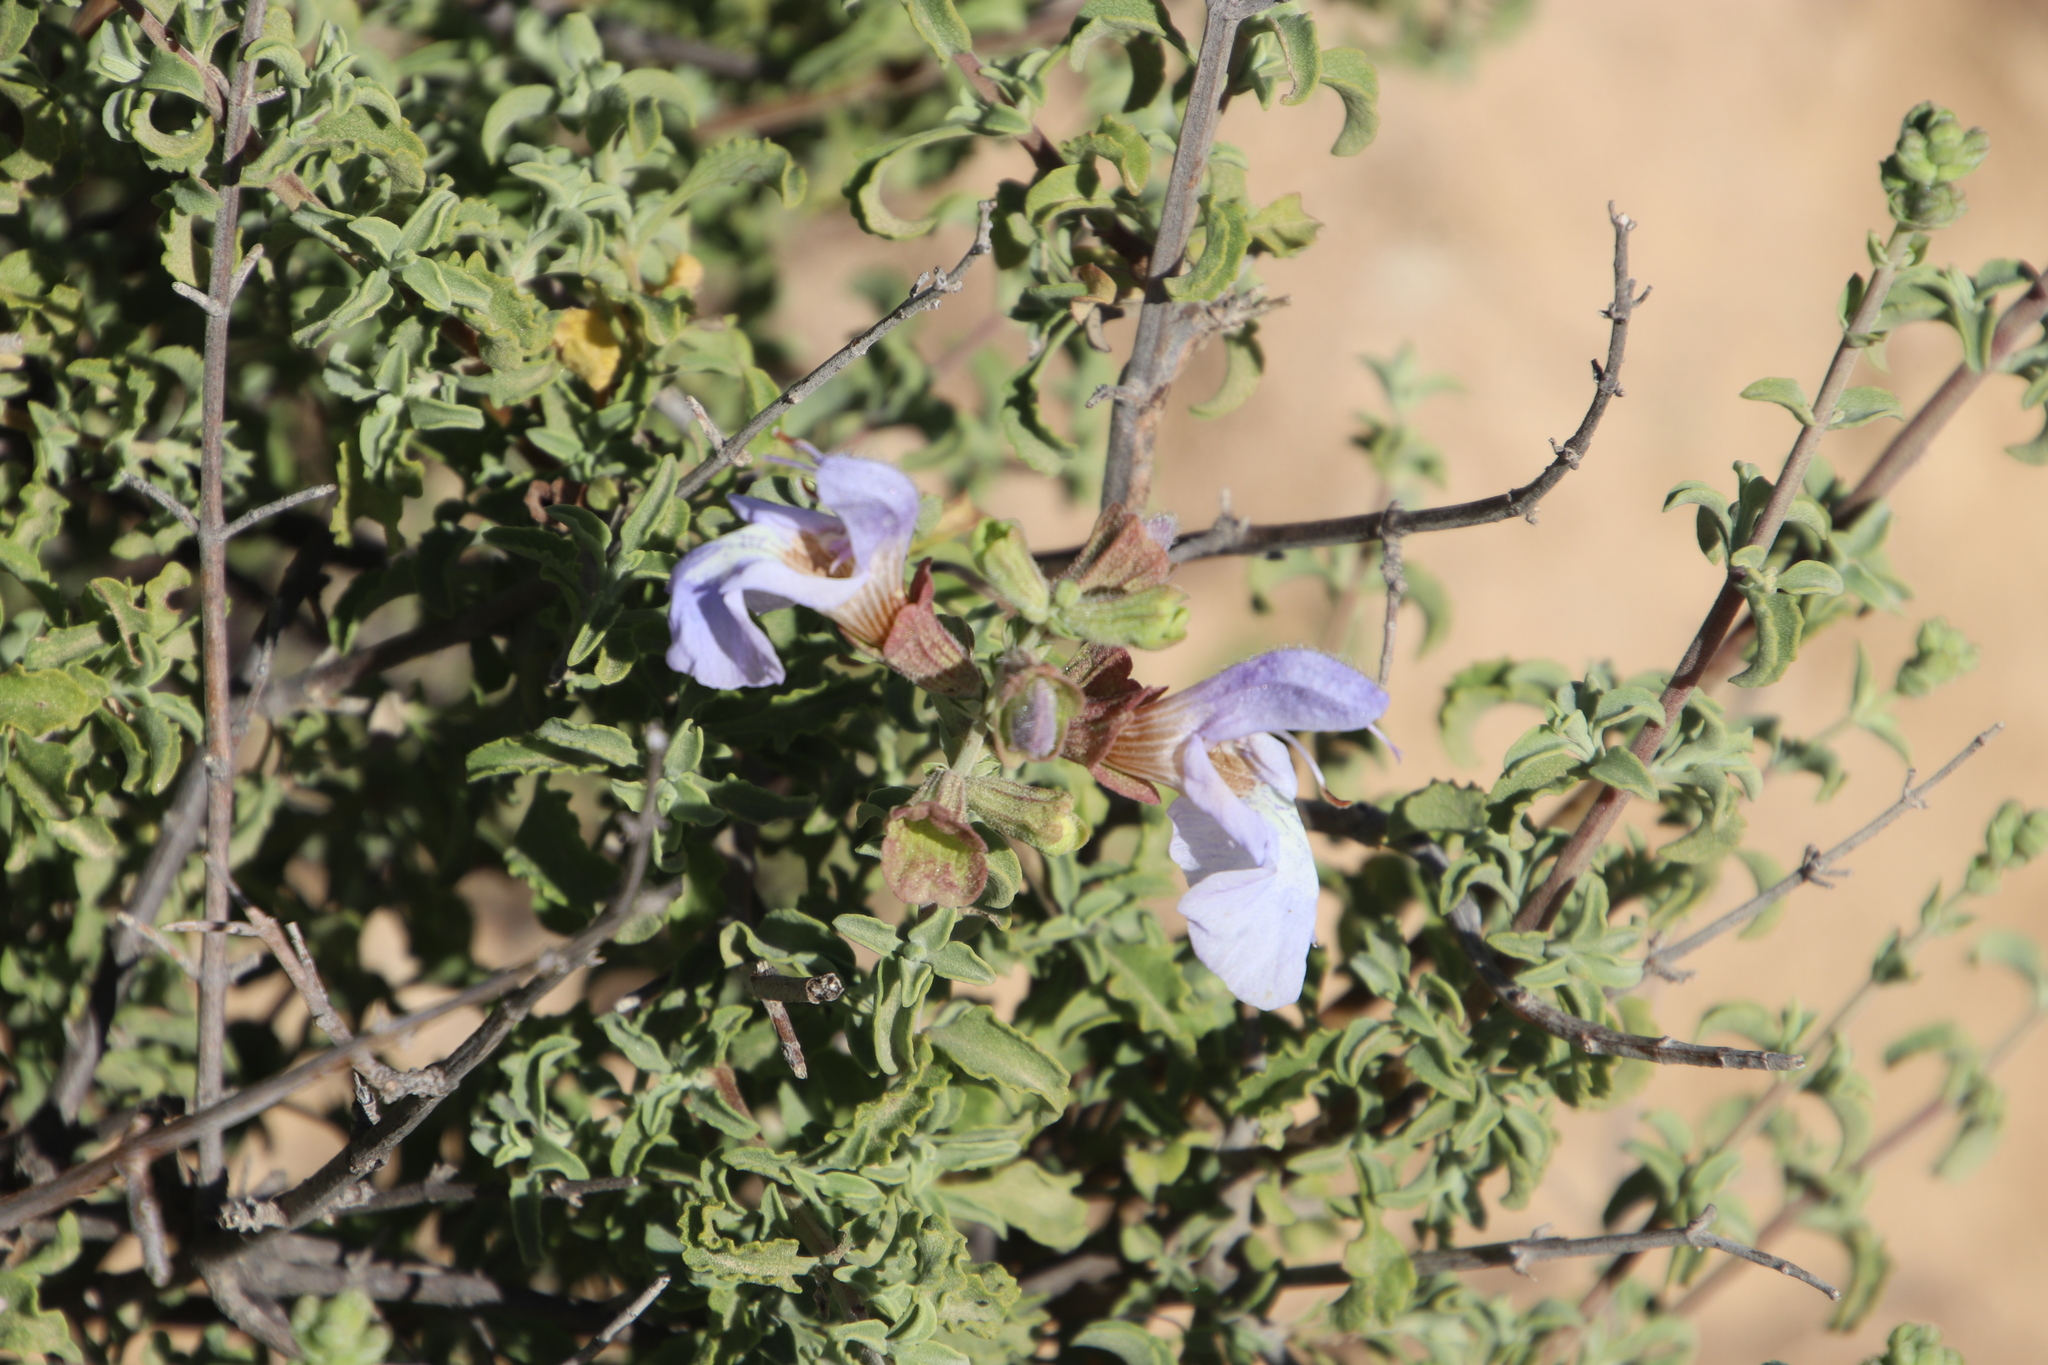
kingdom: Plantae
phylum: Tracheophyta
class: Magnoliopsida
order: Lamiales
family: Lamiaceae
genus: Salvia
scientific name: Salvia dentata
